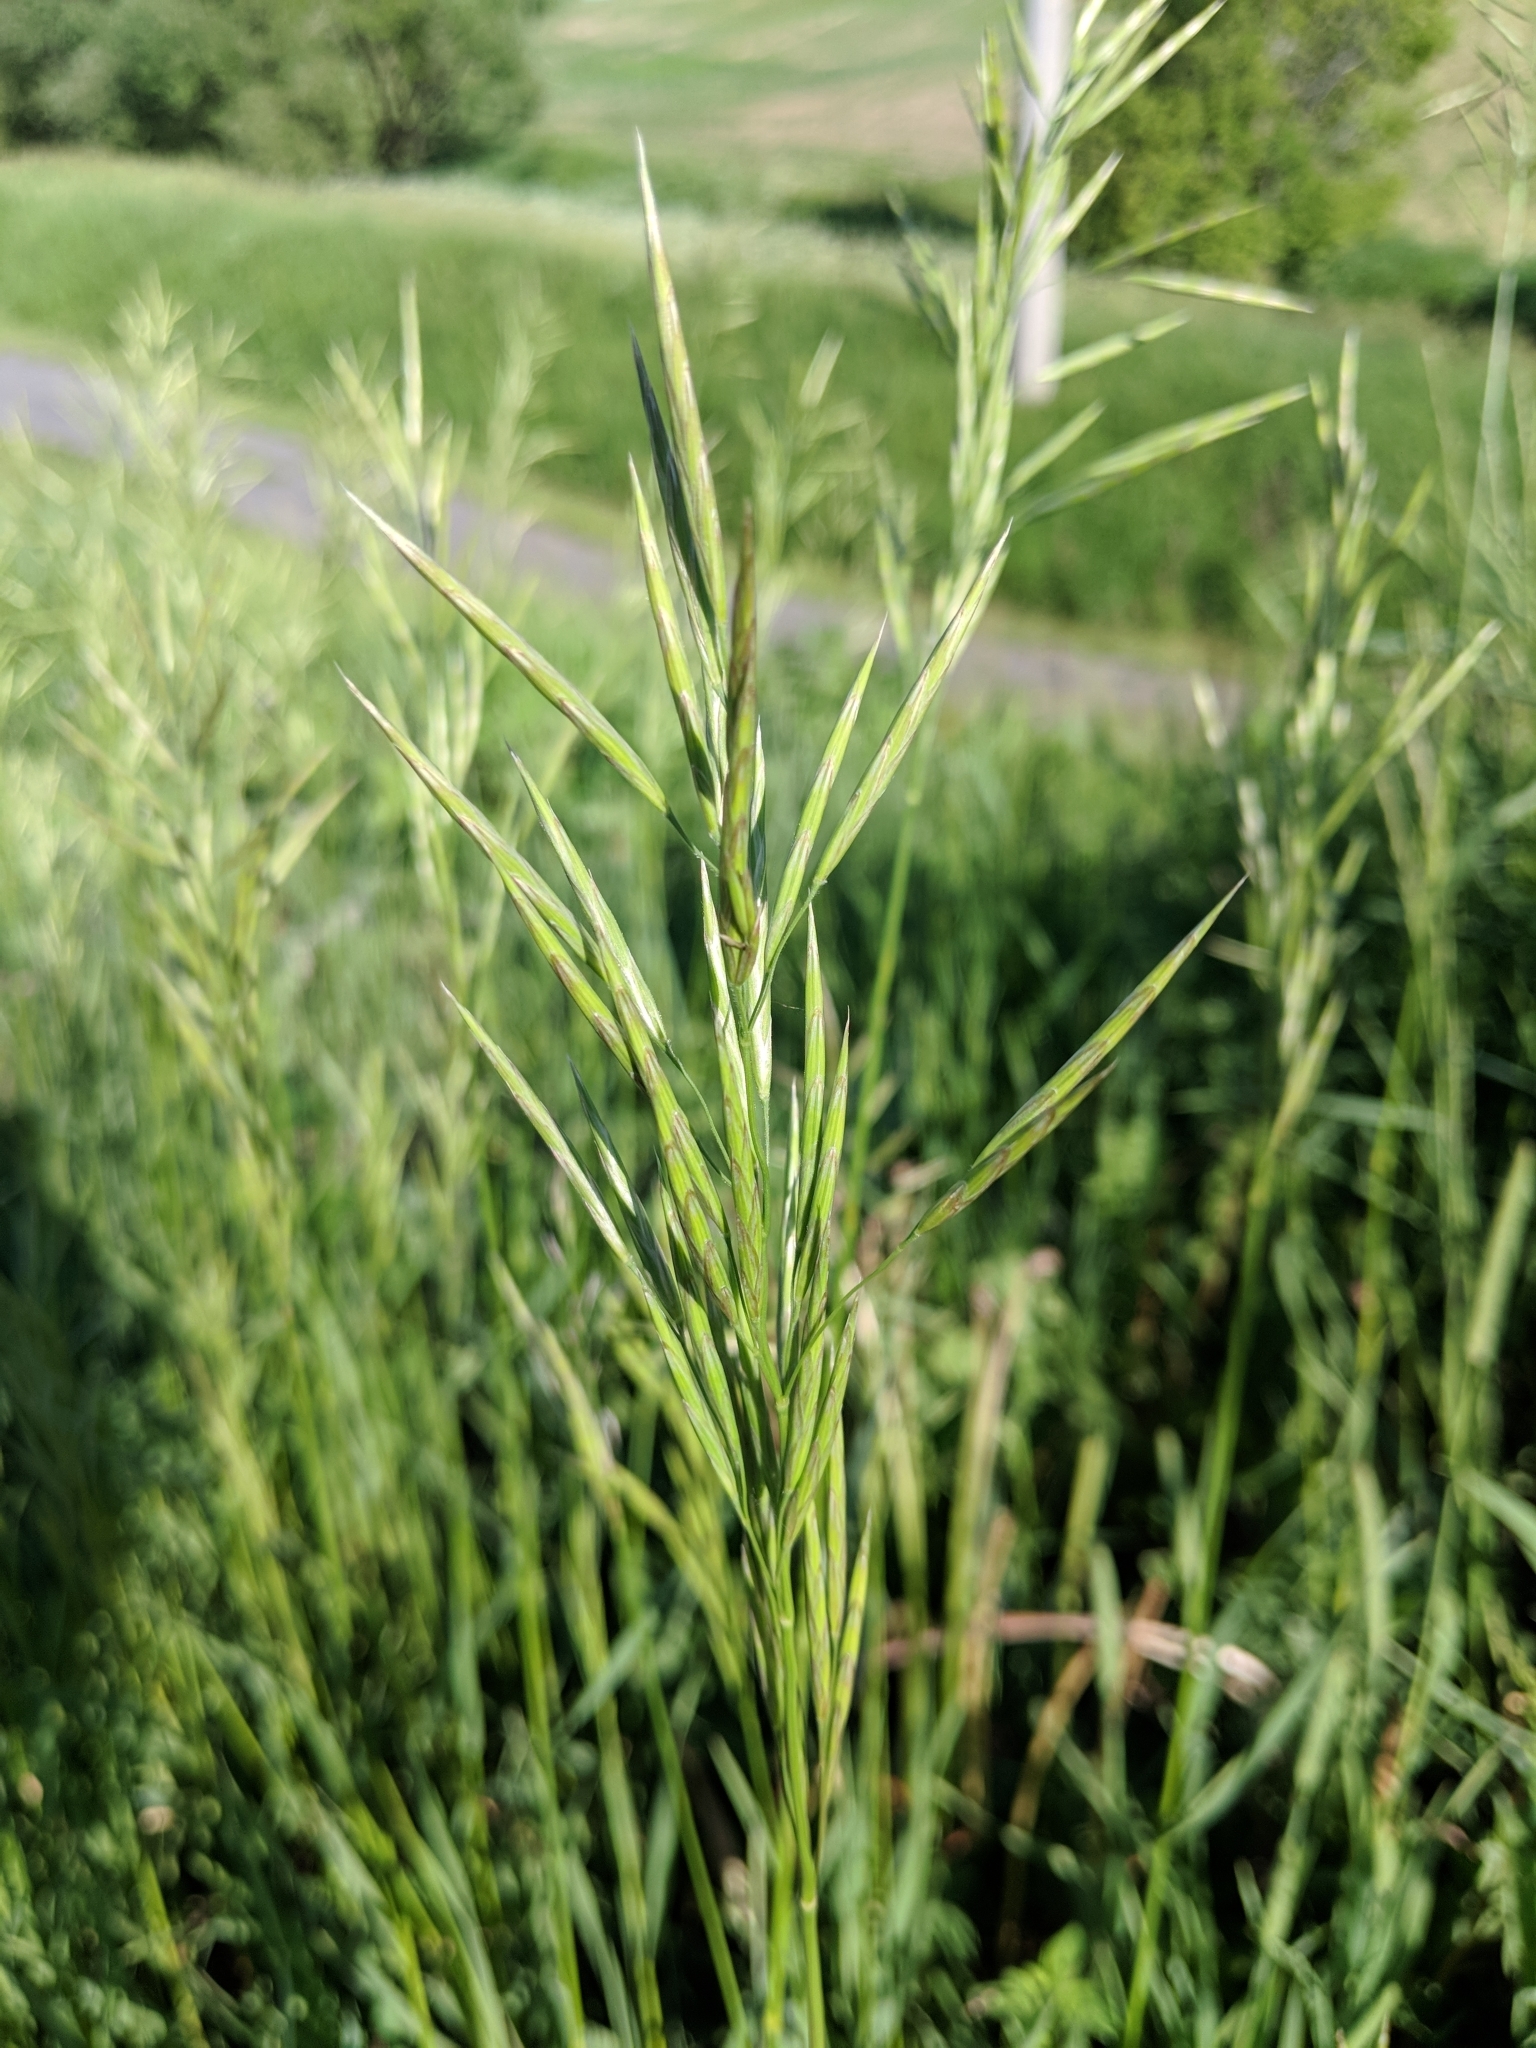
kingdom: Plantae
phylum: Tracheophyta
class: Liliopsida
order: Poales
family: Poaceae
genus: Bromus
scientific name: Bromus inermis
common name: Smooth brome
